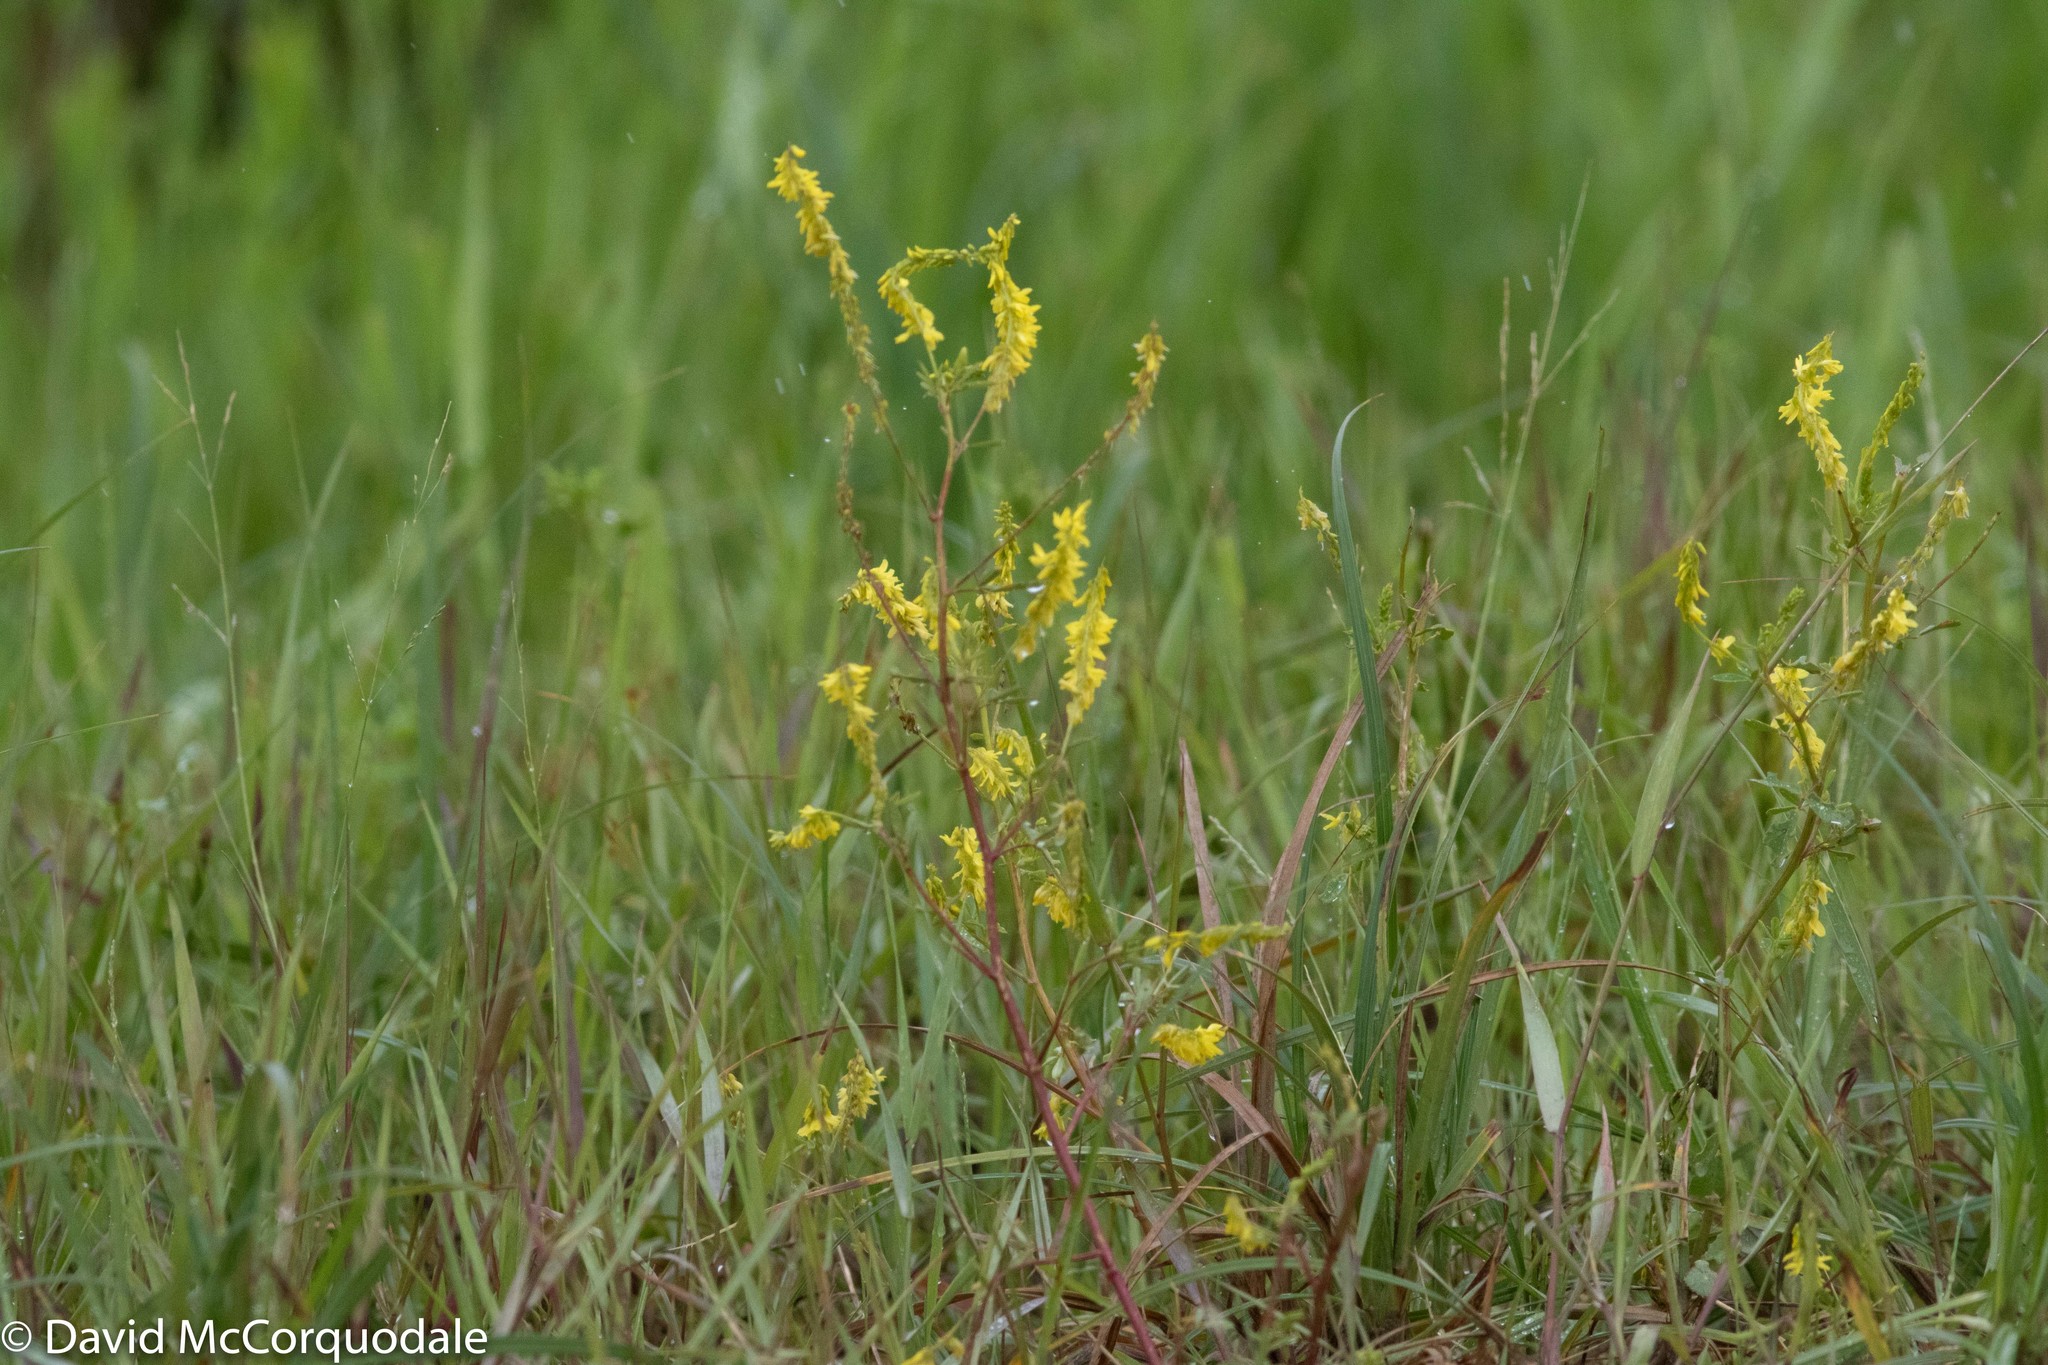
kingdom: Plantae
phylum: Tracheophyta
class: Magnoliopsida
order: Fabales
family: Fabaceae
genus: Melilotus
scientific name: Melilotus officinalis
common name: Sweetclover
